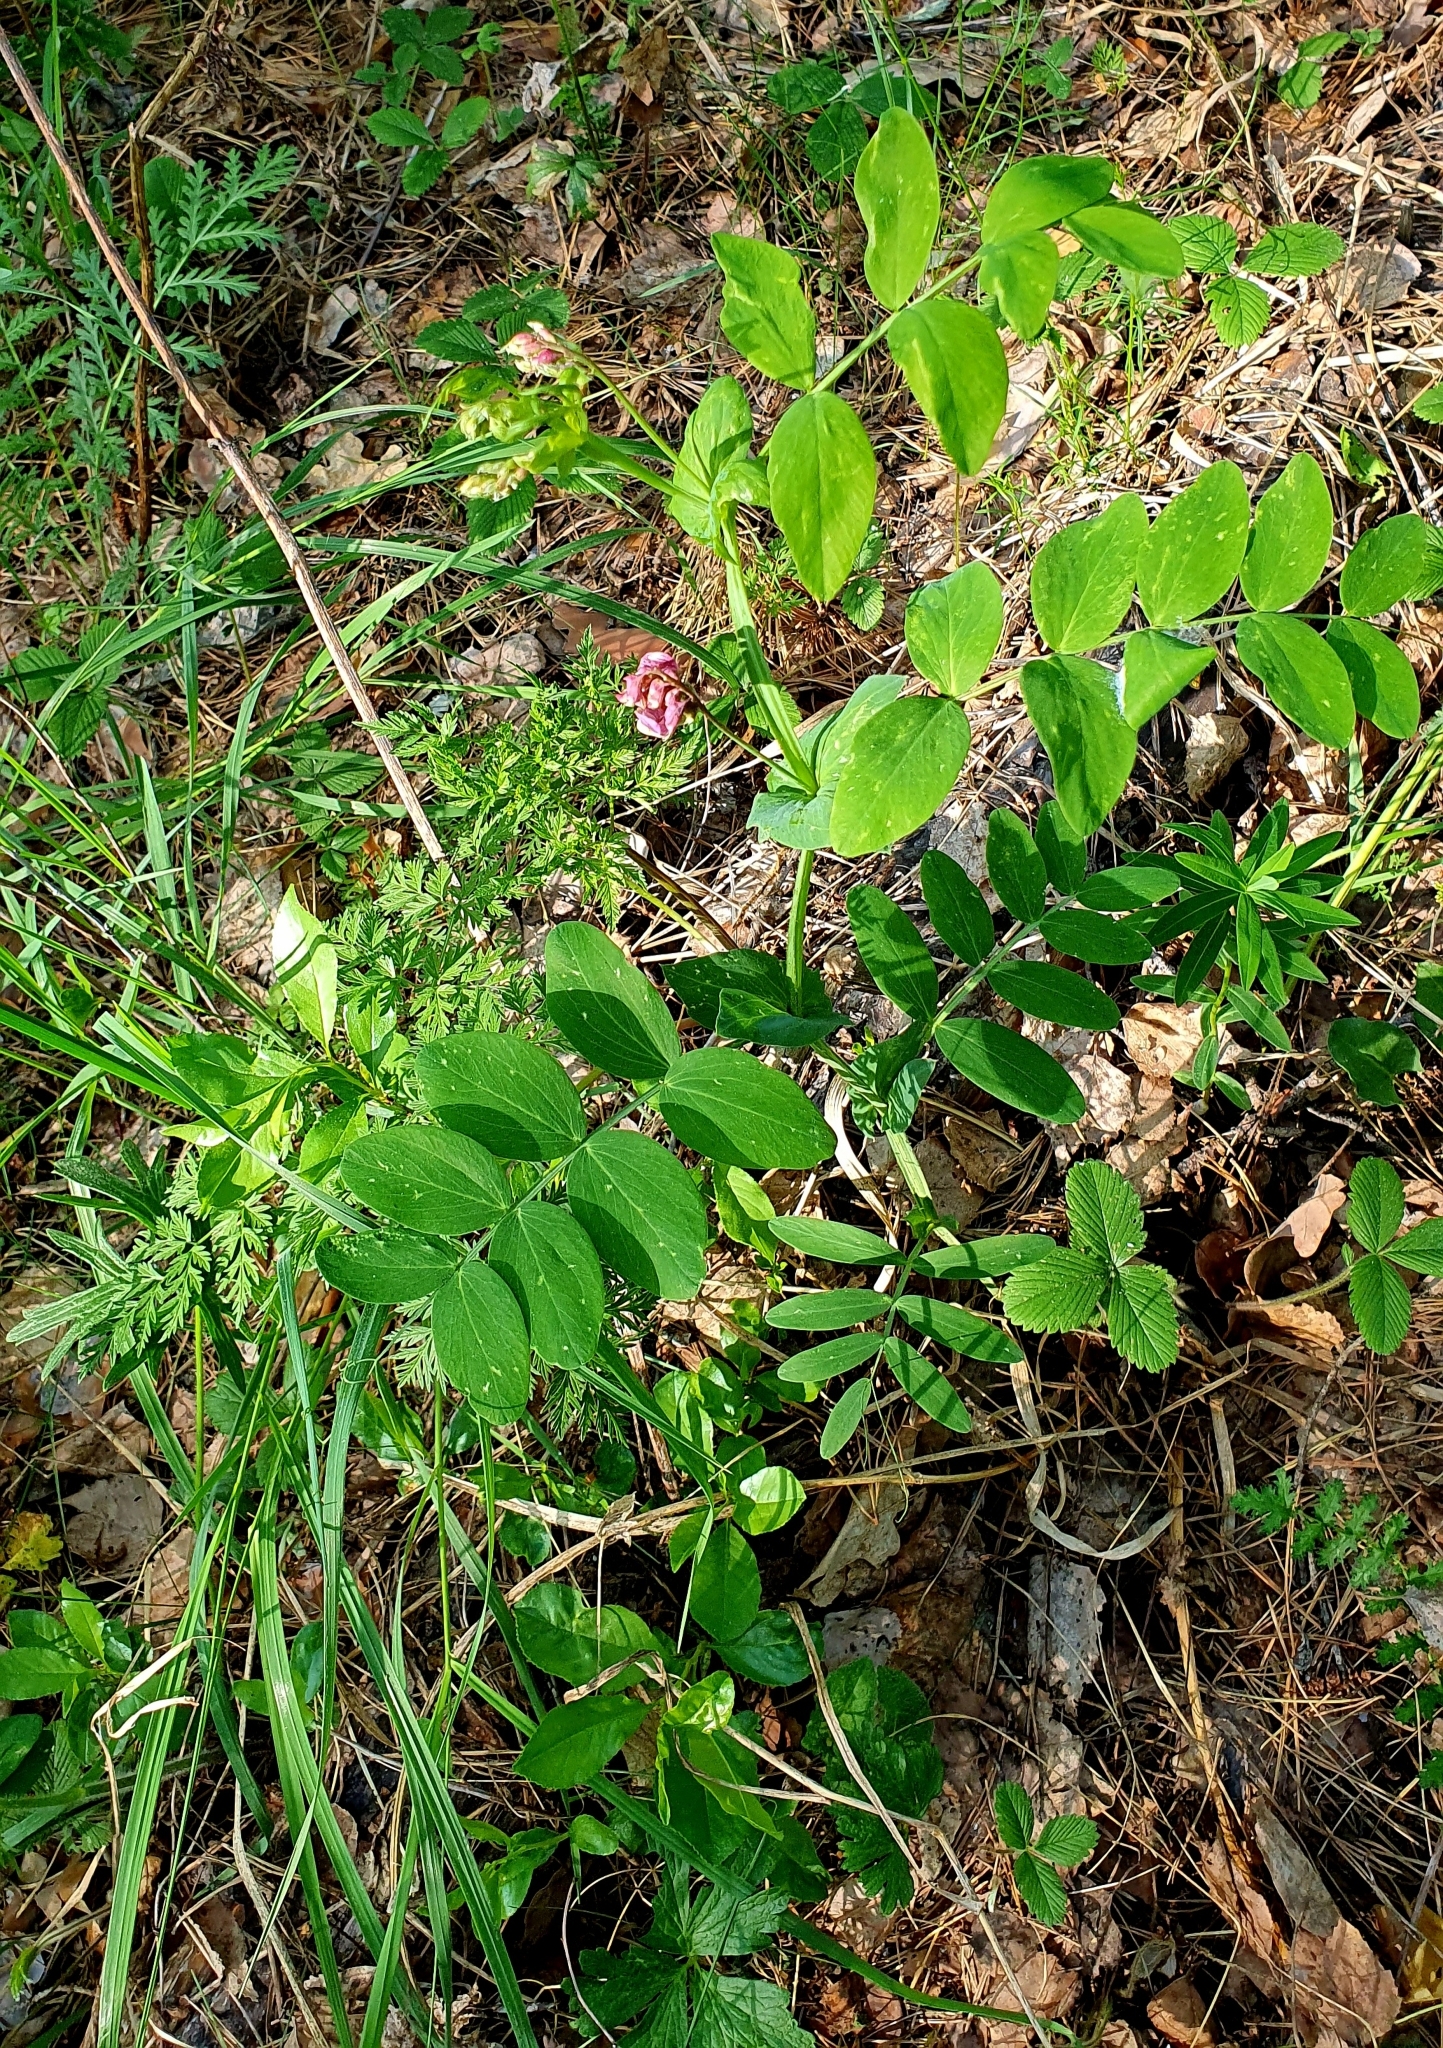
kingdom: Plantae
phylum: Tracheophyta
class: Magnoliopsida
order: Fabales
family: Fabaceae
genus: Lathyrus
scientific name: Lathyrus pisiformis
